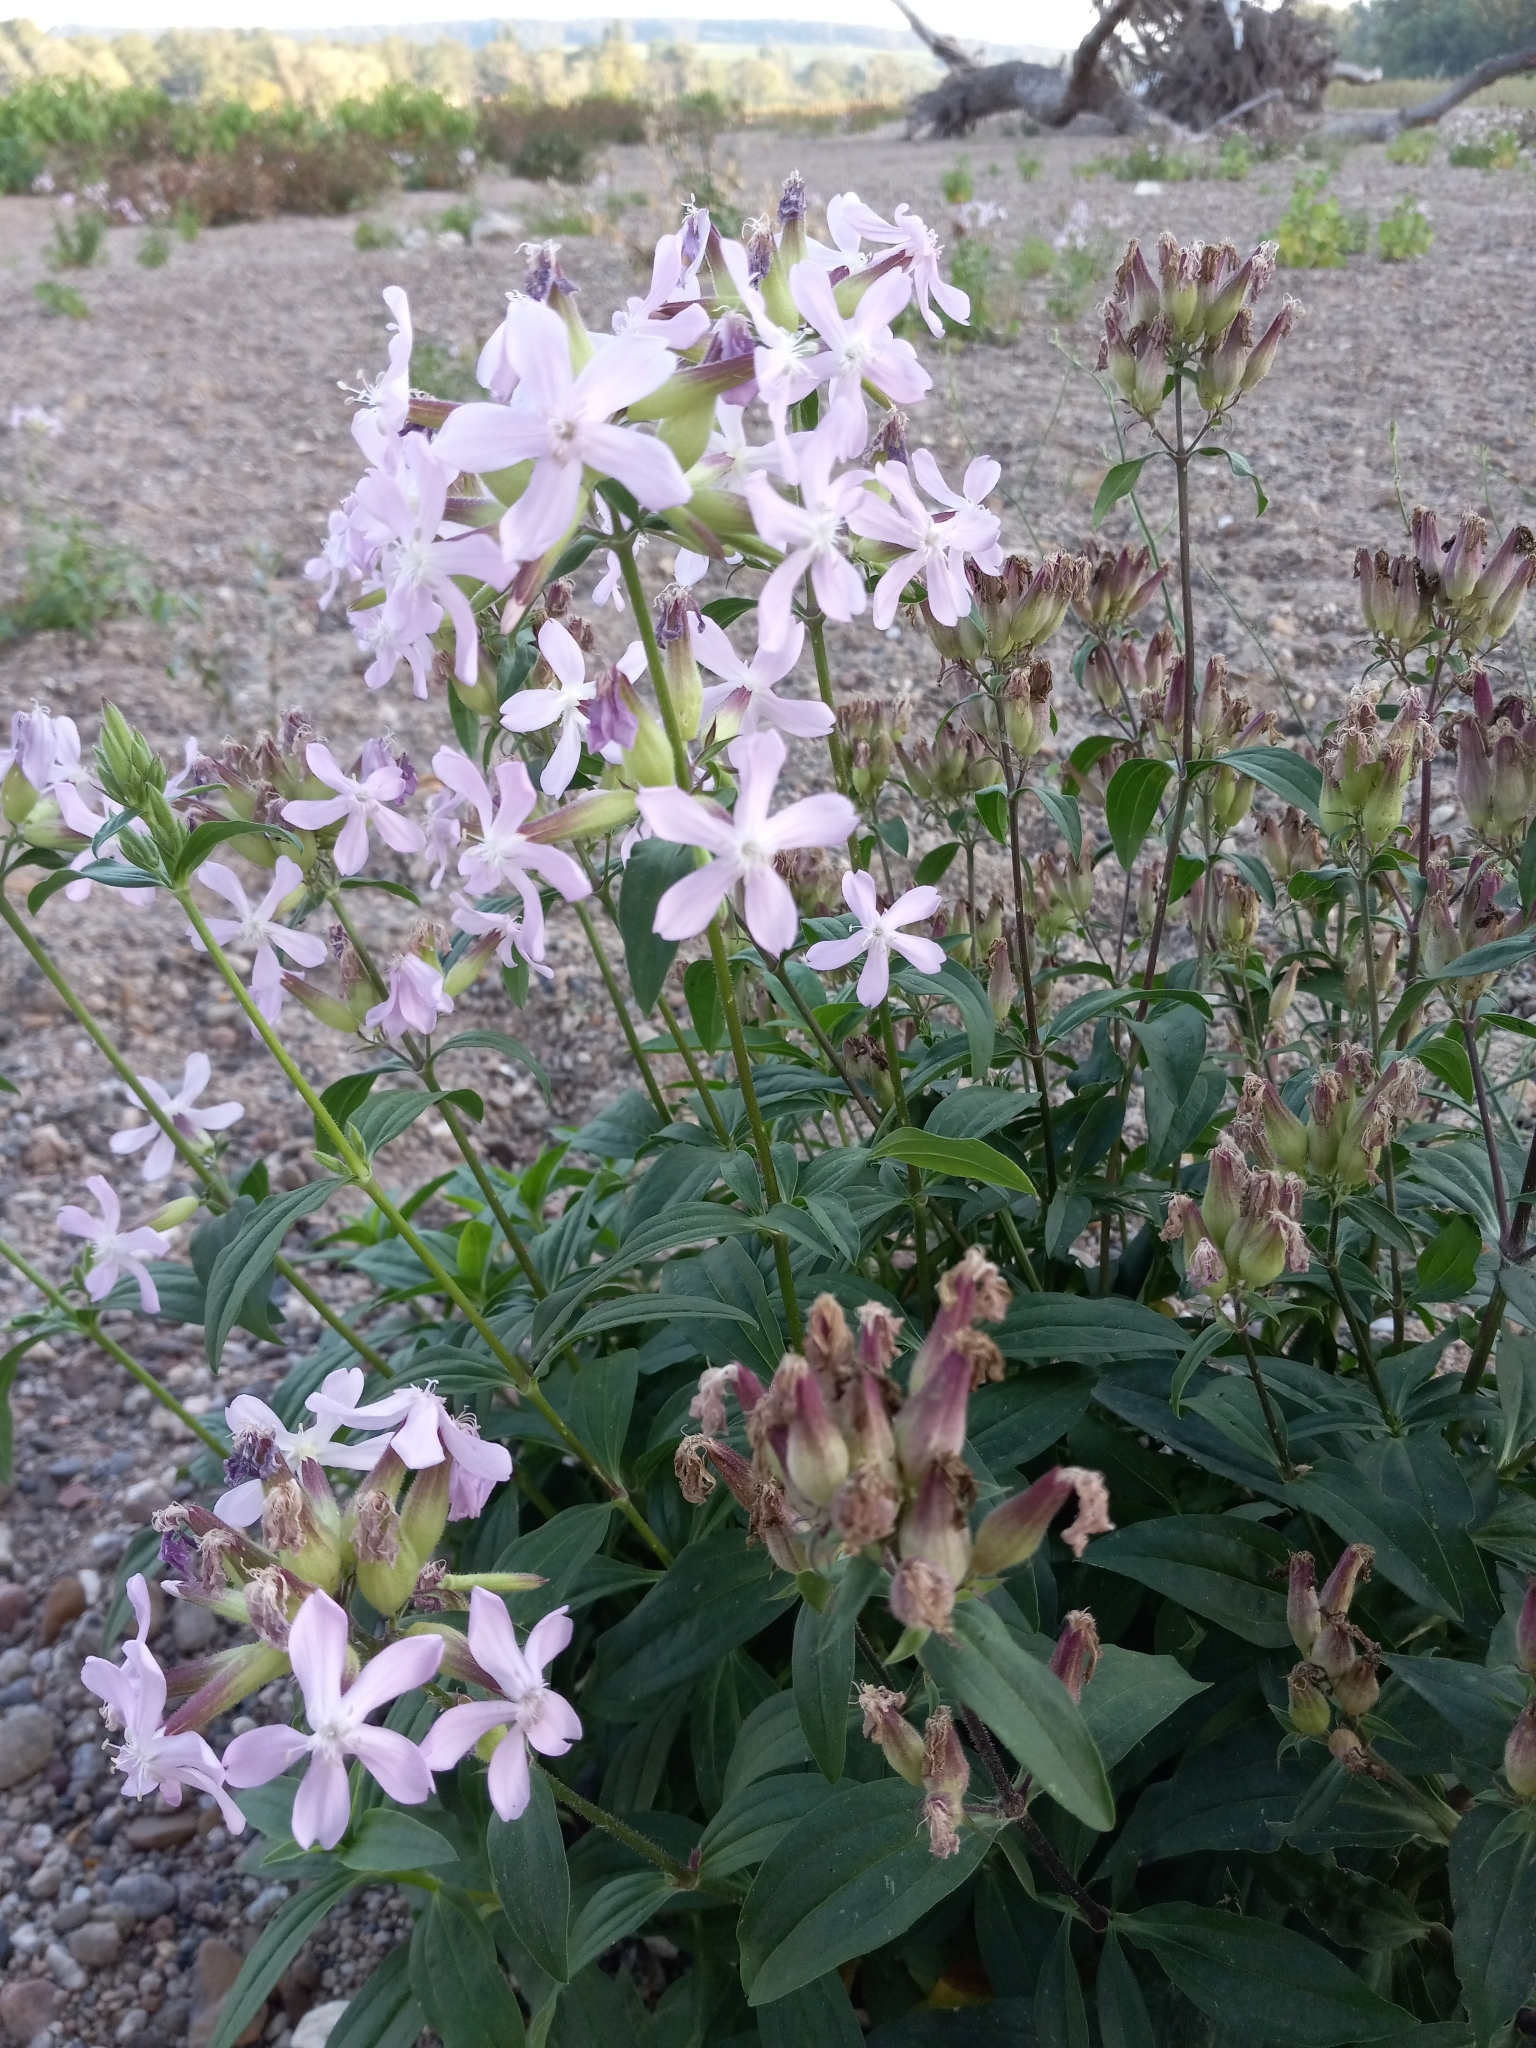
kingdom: Plantae
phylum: Tracheophyta
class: Magnoliopsida
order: Caryophyllales
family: Caryophyllaceae
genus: Saponaria
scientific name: Saponaria officinalis
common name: Soapwort
